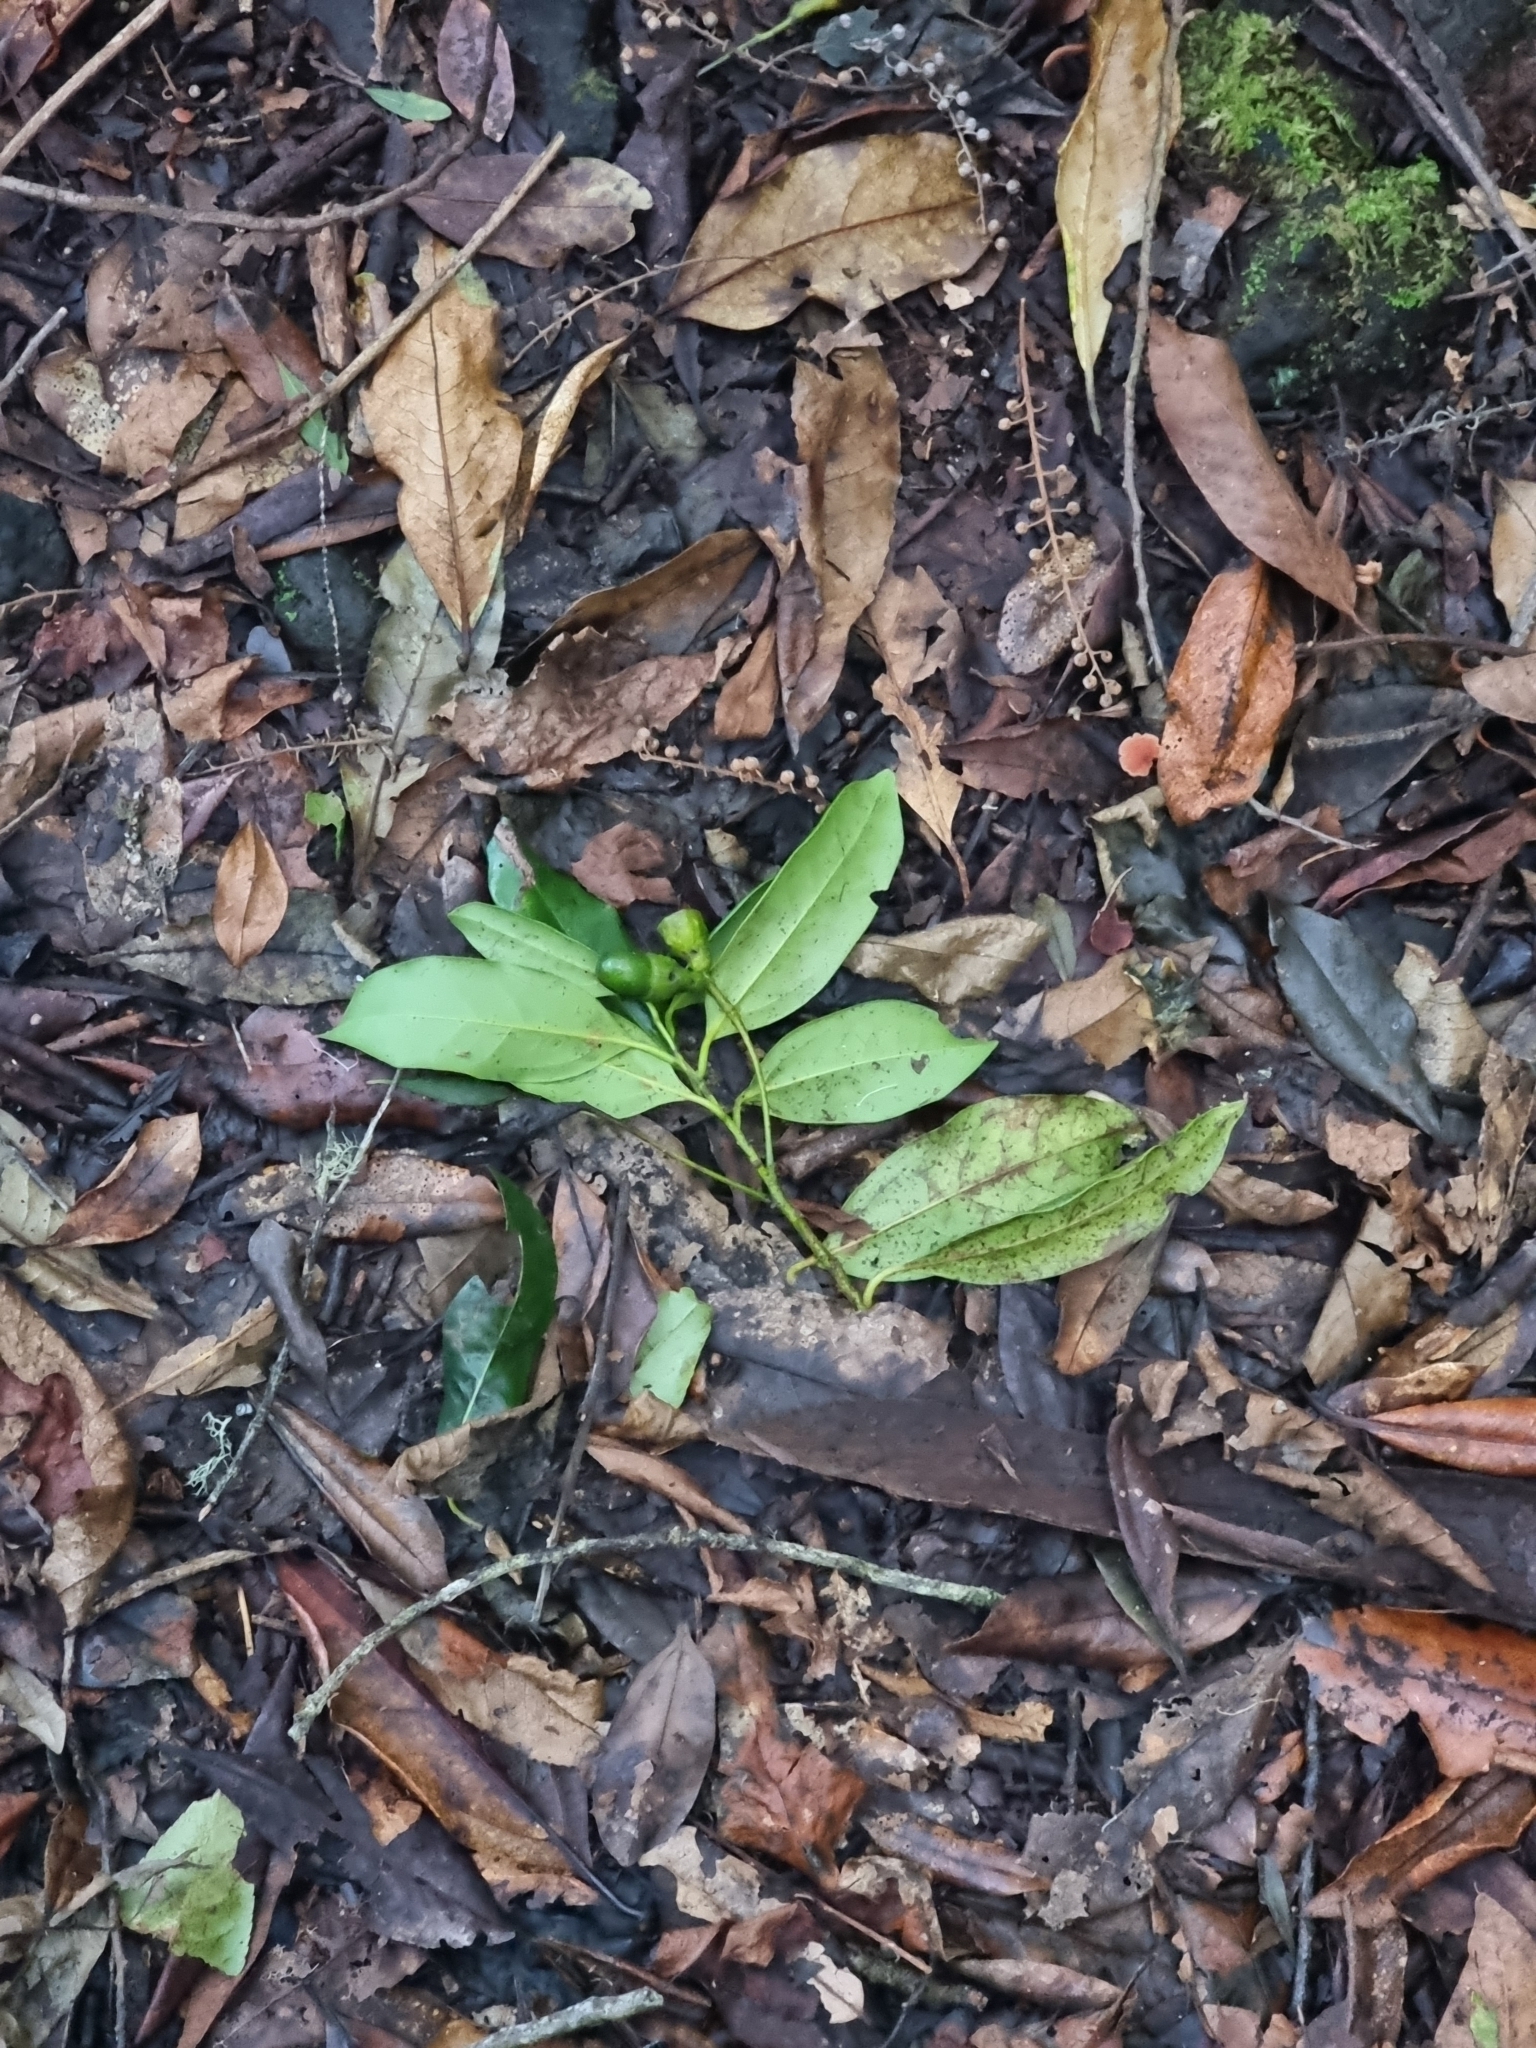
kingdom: Plantae
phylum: Tracheophyta
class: Magnoliopsida
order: Laurales
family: Lauraceae
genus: Mespilodaphne
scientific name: Mespilodaphne foetens
